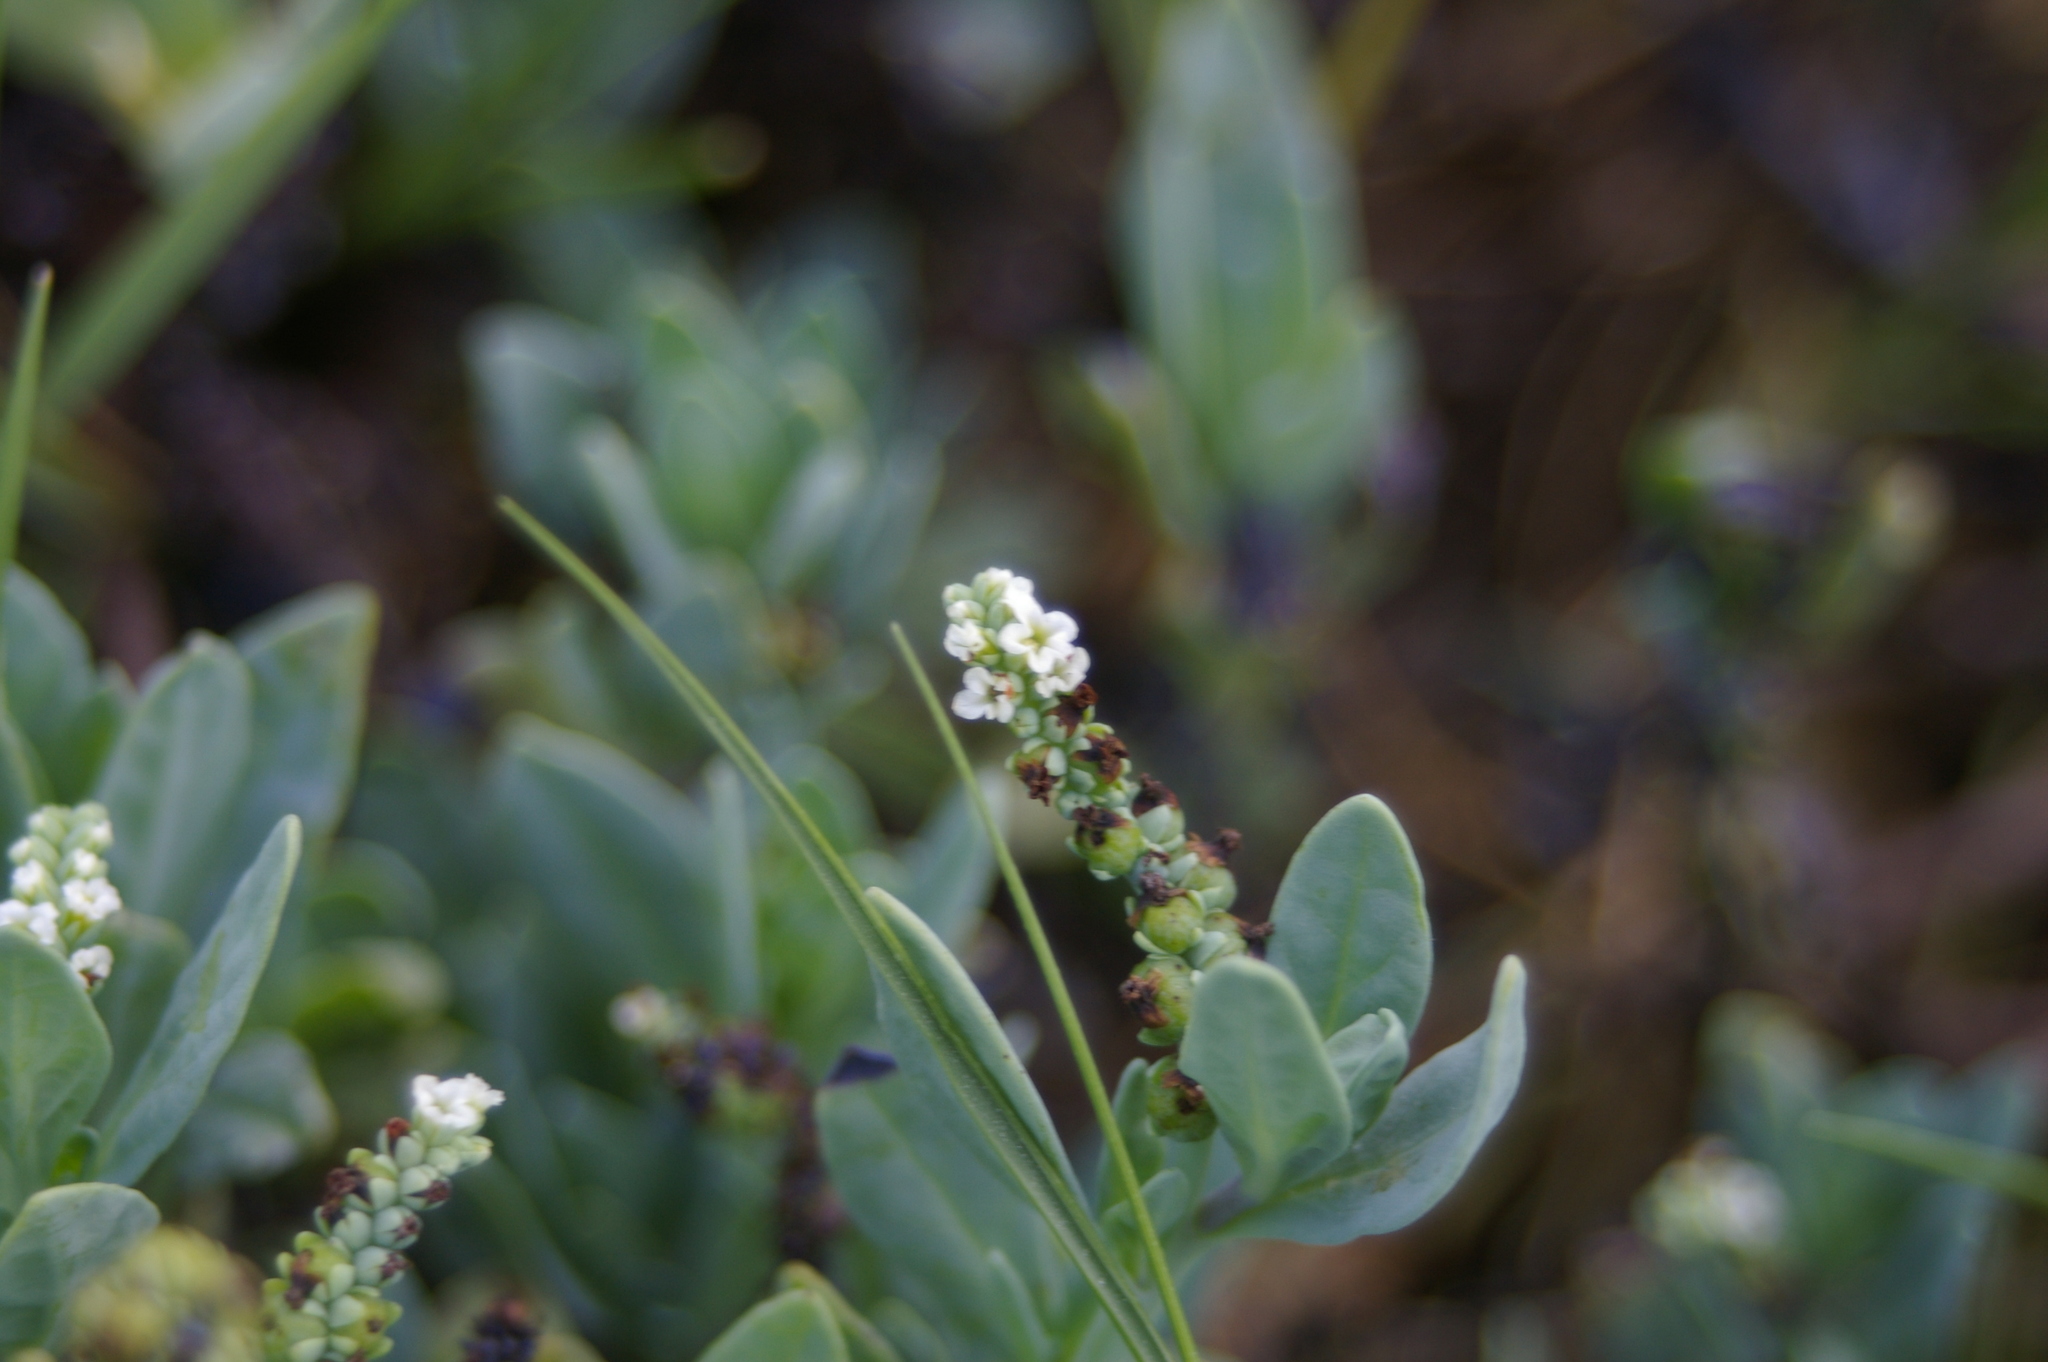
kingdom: Plantae
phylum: Tracheophyta
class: Magnoliopsida
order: Boraginales
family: Heliotropiaceae
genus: Heliotropium
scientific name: Heliotropium curassavicum
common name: Seaside heliotrope
